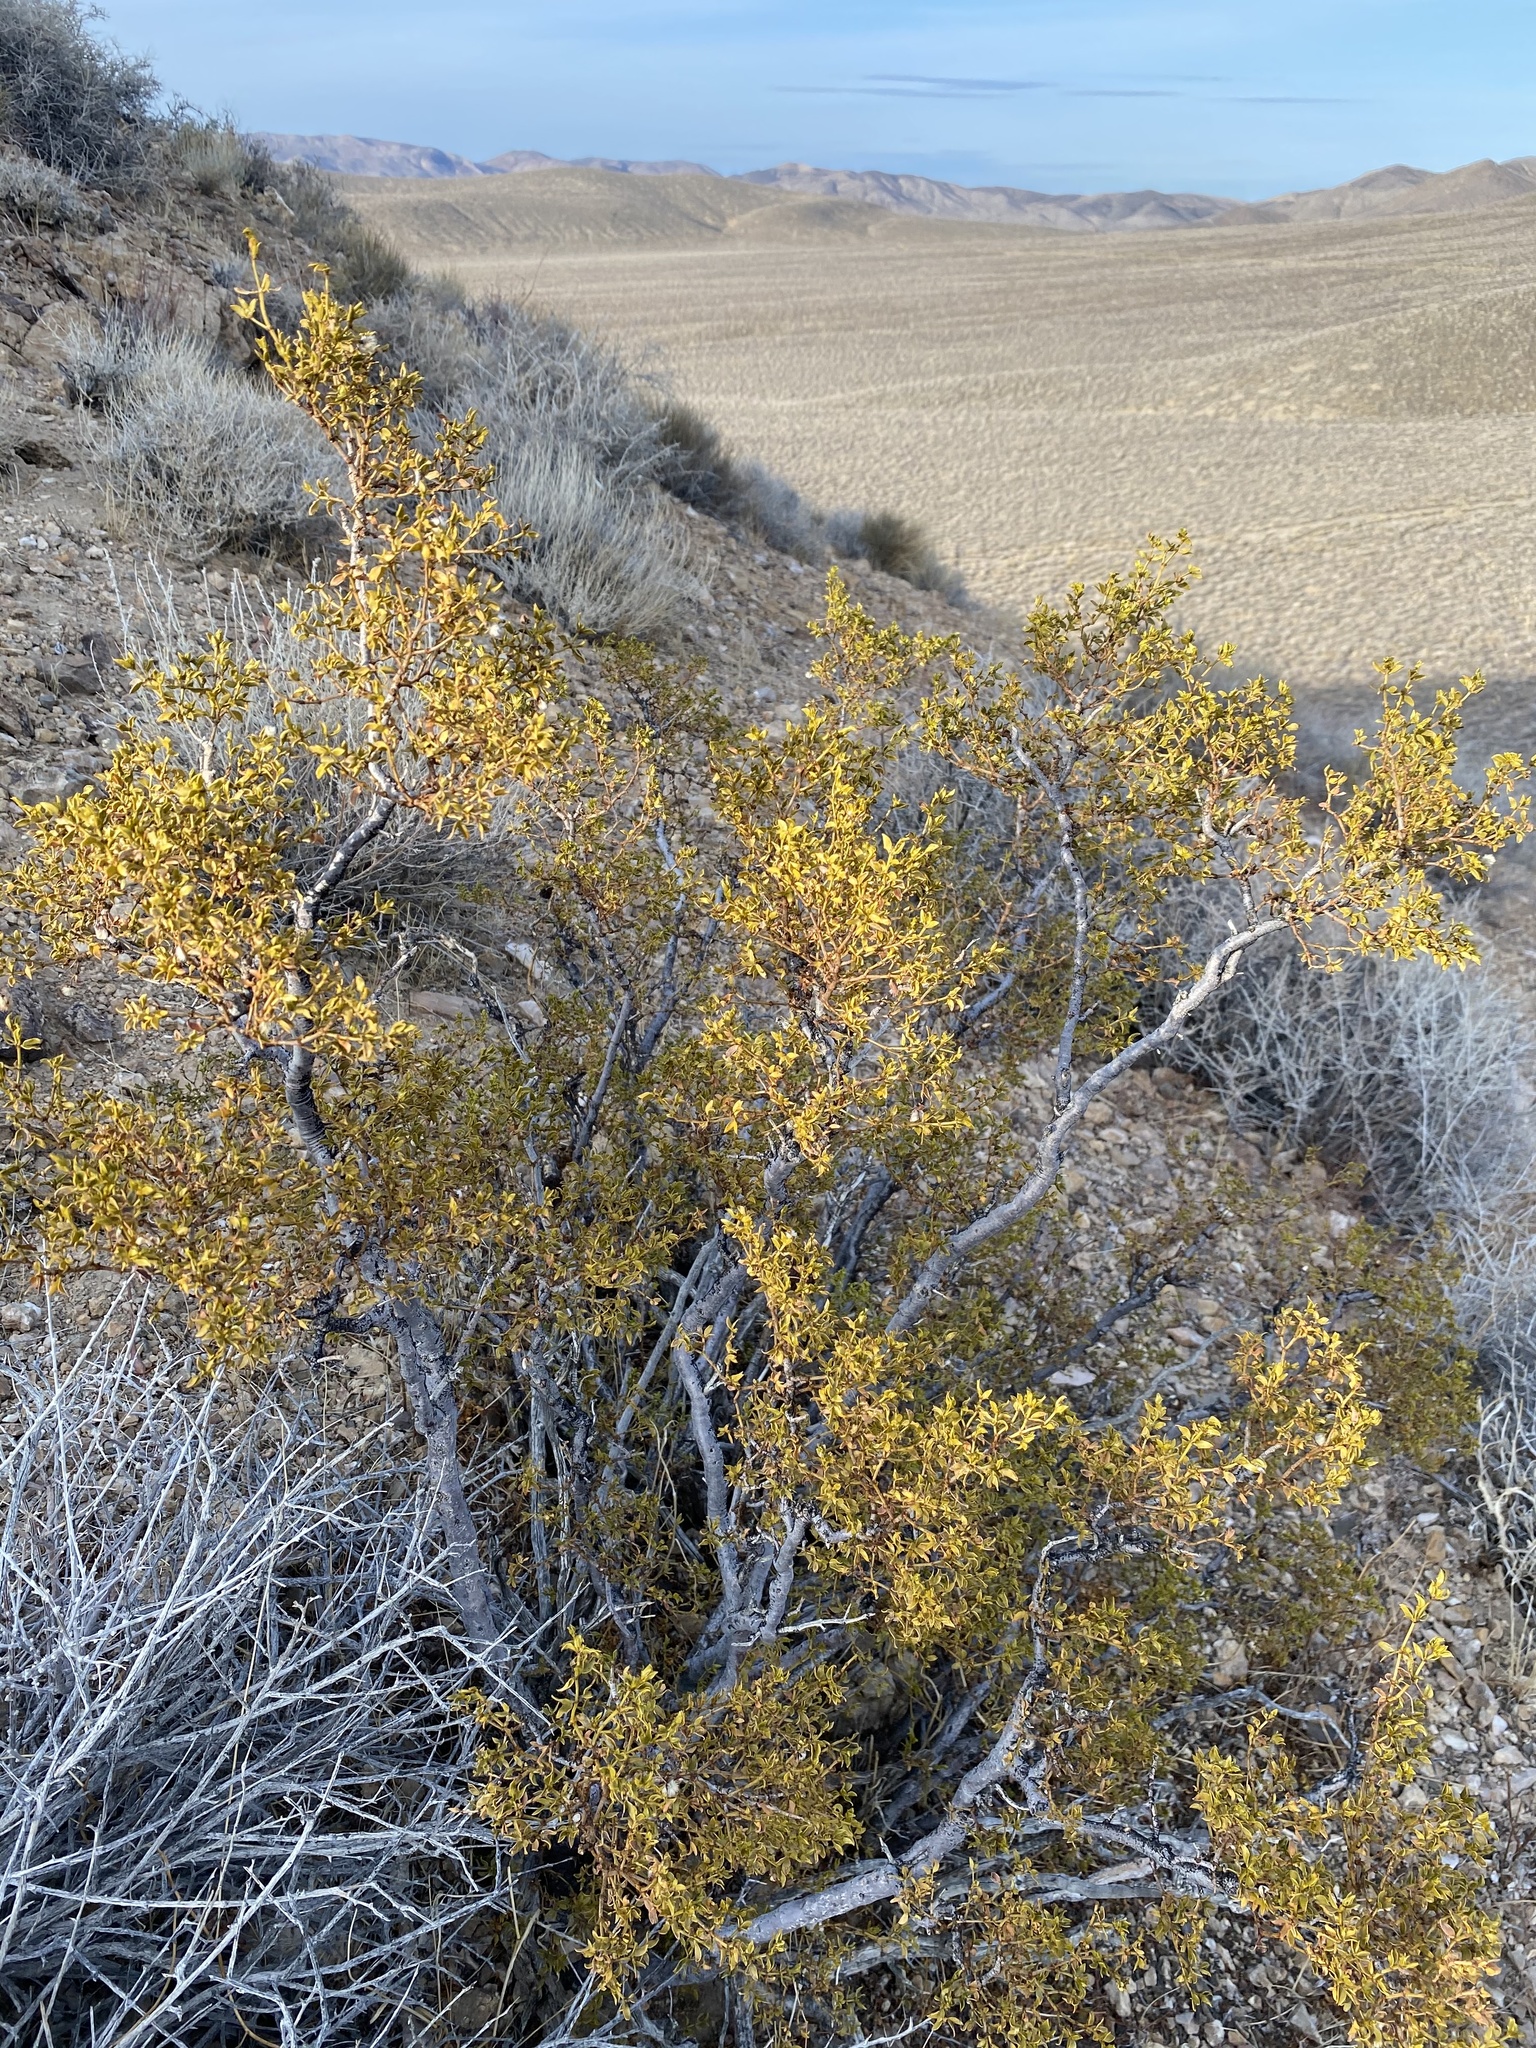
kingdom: Plantae
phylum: Tracheophyta
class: Magnoliopsida
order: Zygophyllales
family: Zygophyllaceae
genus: Larrea
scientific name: Larrea tridentata
